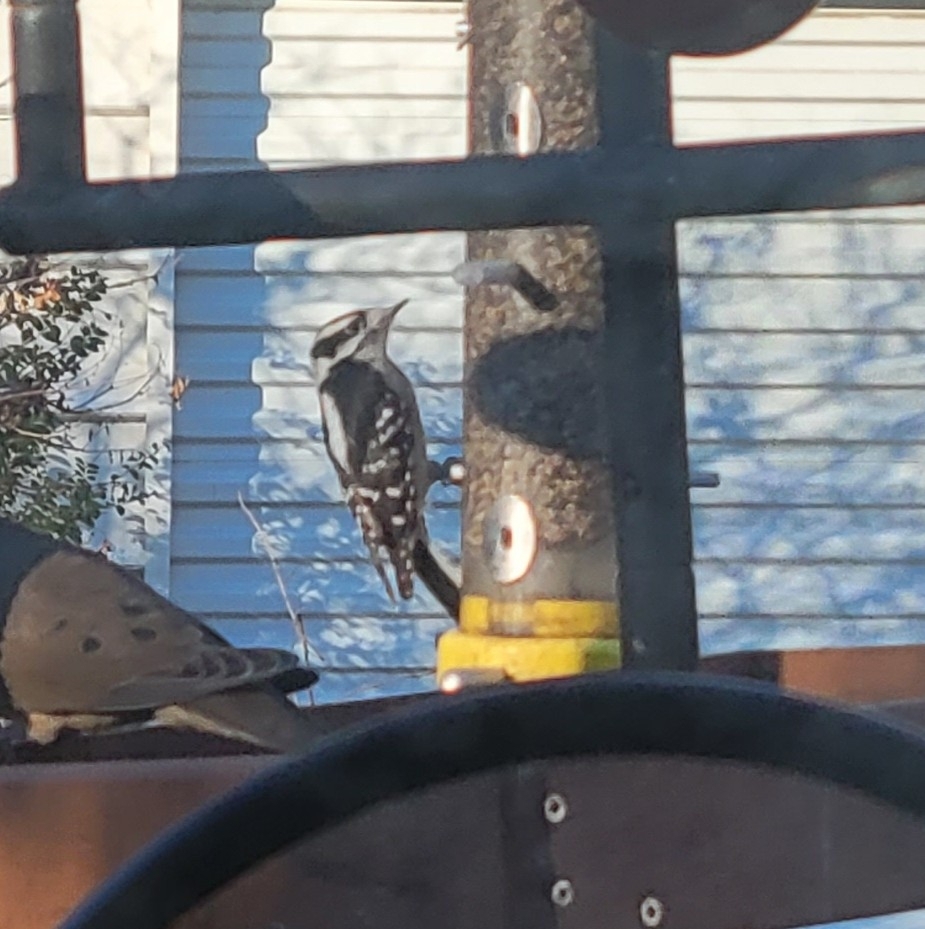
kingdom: Animalia
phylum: Chordata
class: Aves
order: Piciformes
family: Picidae
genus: Dryobates
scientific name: Dryobates pubescens
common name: Downy woodpecker
